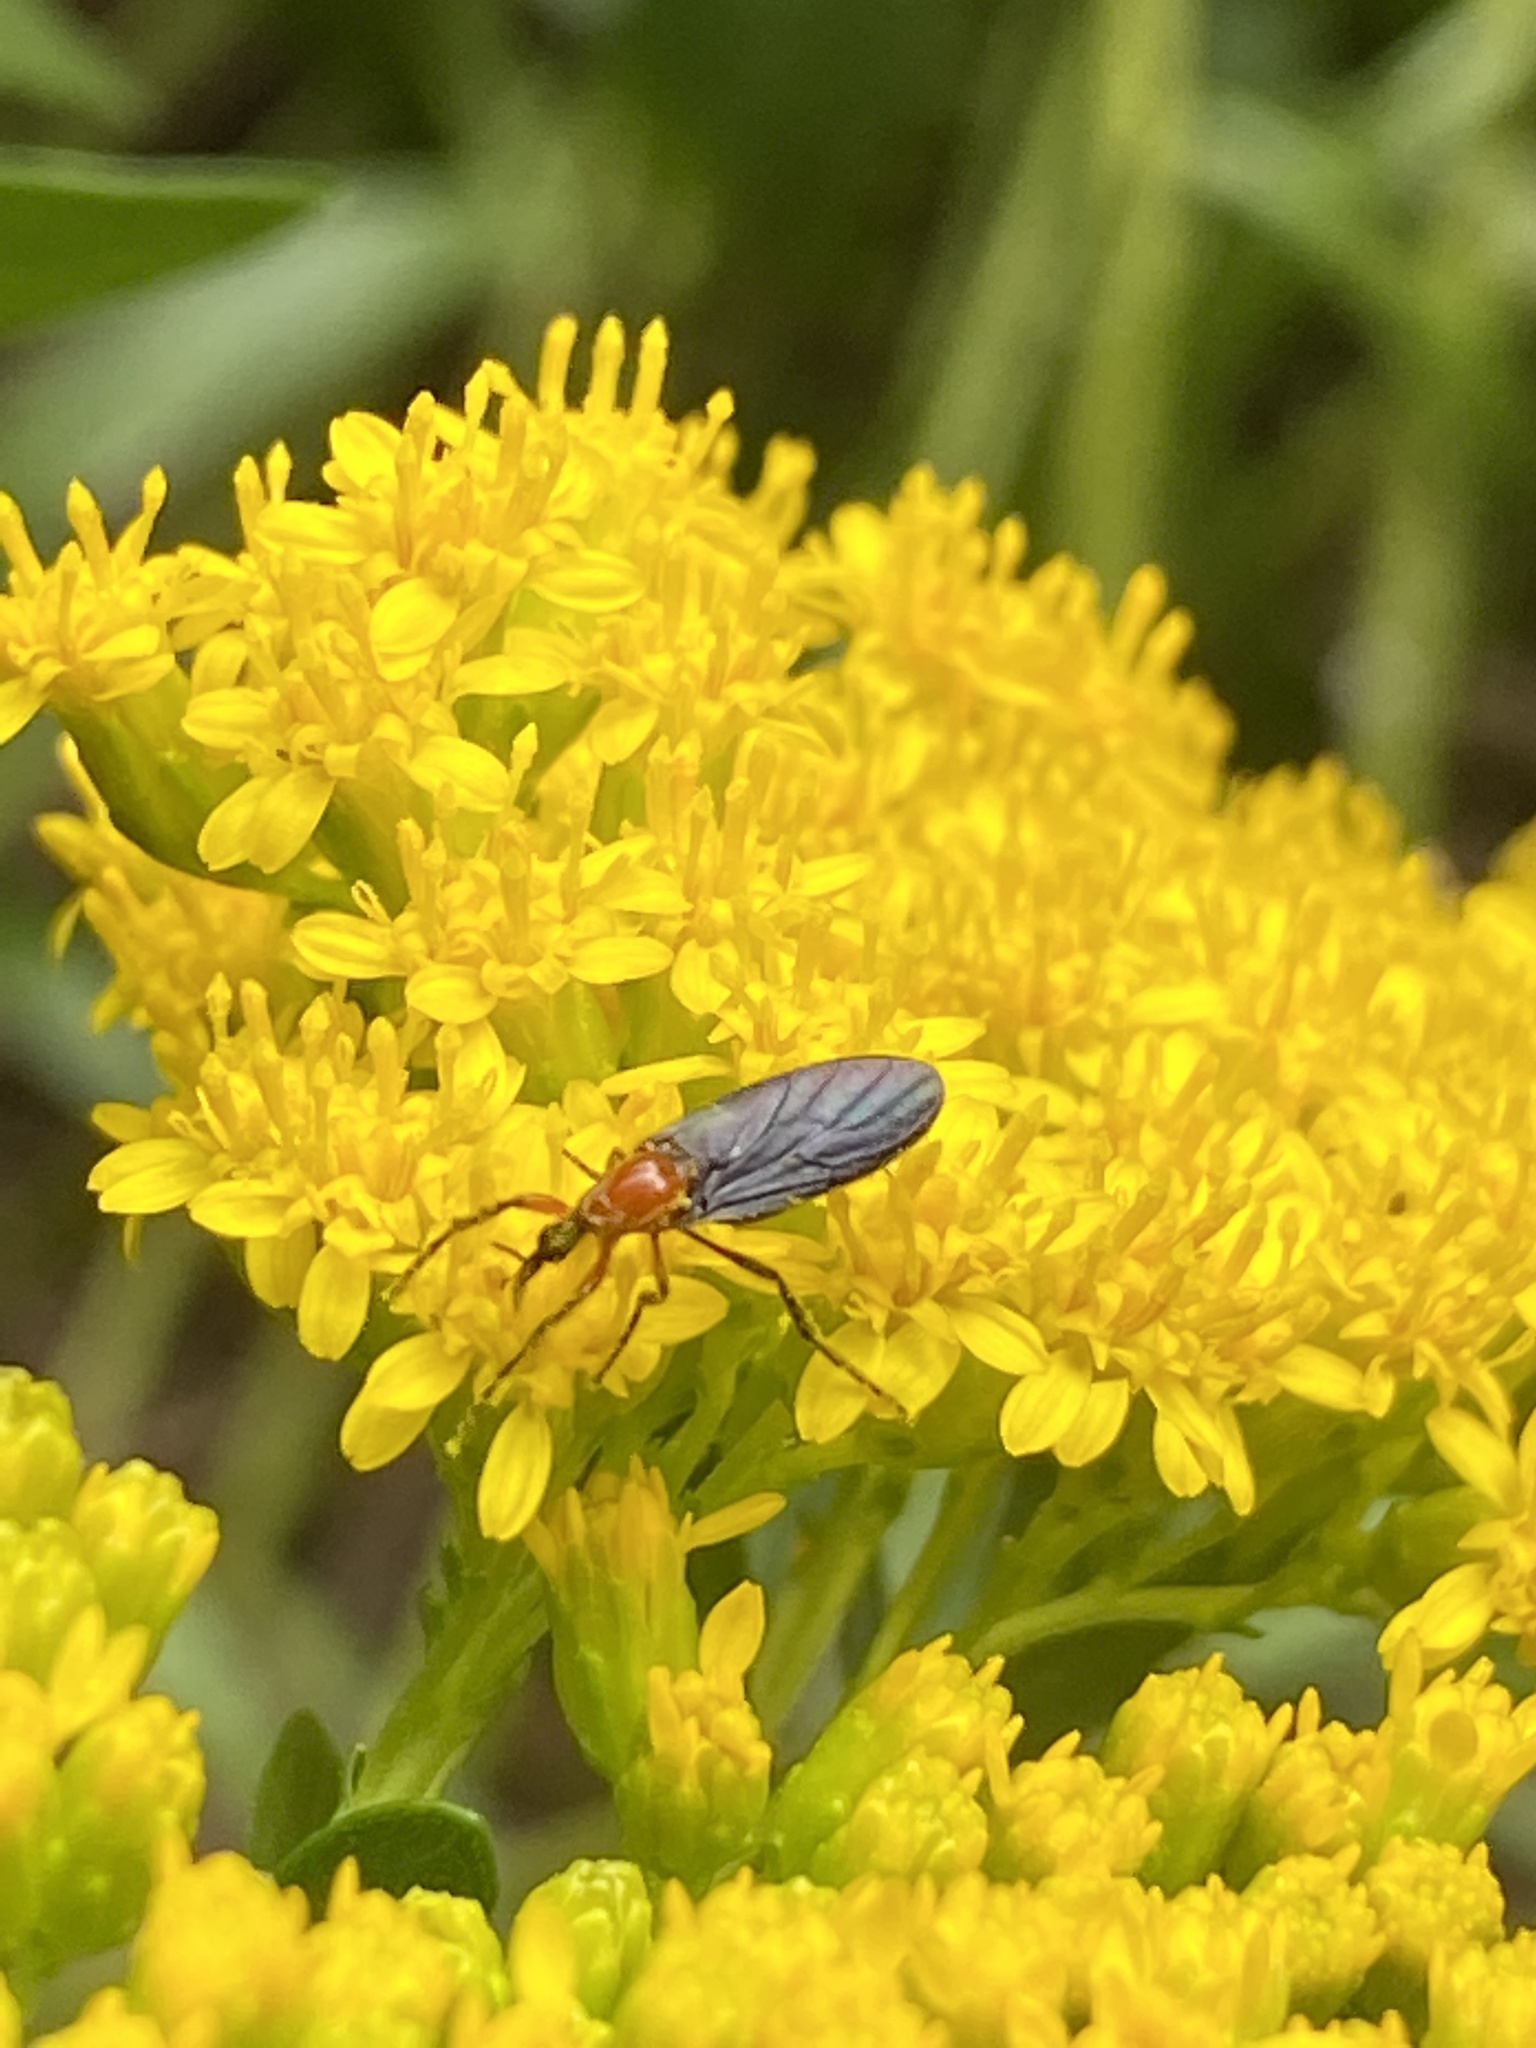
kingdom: Animalia
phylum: Arthropoda
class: Insecta
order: Diptera
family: Bibionidae
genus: Dilophus
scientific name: Dilophus spinipes
